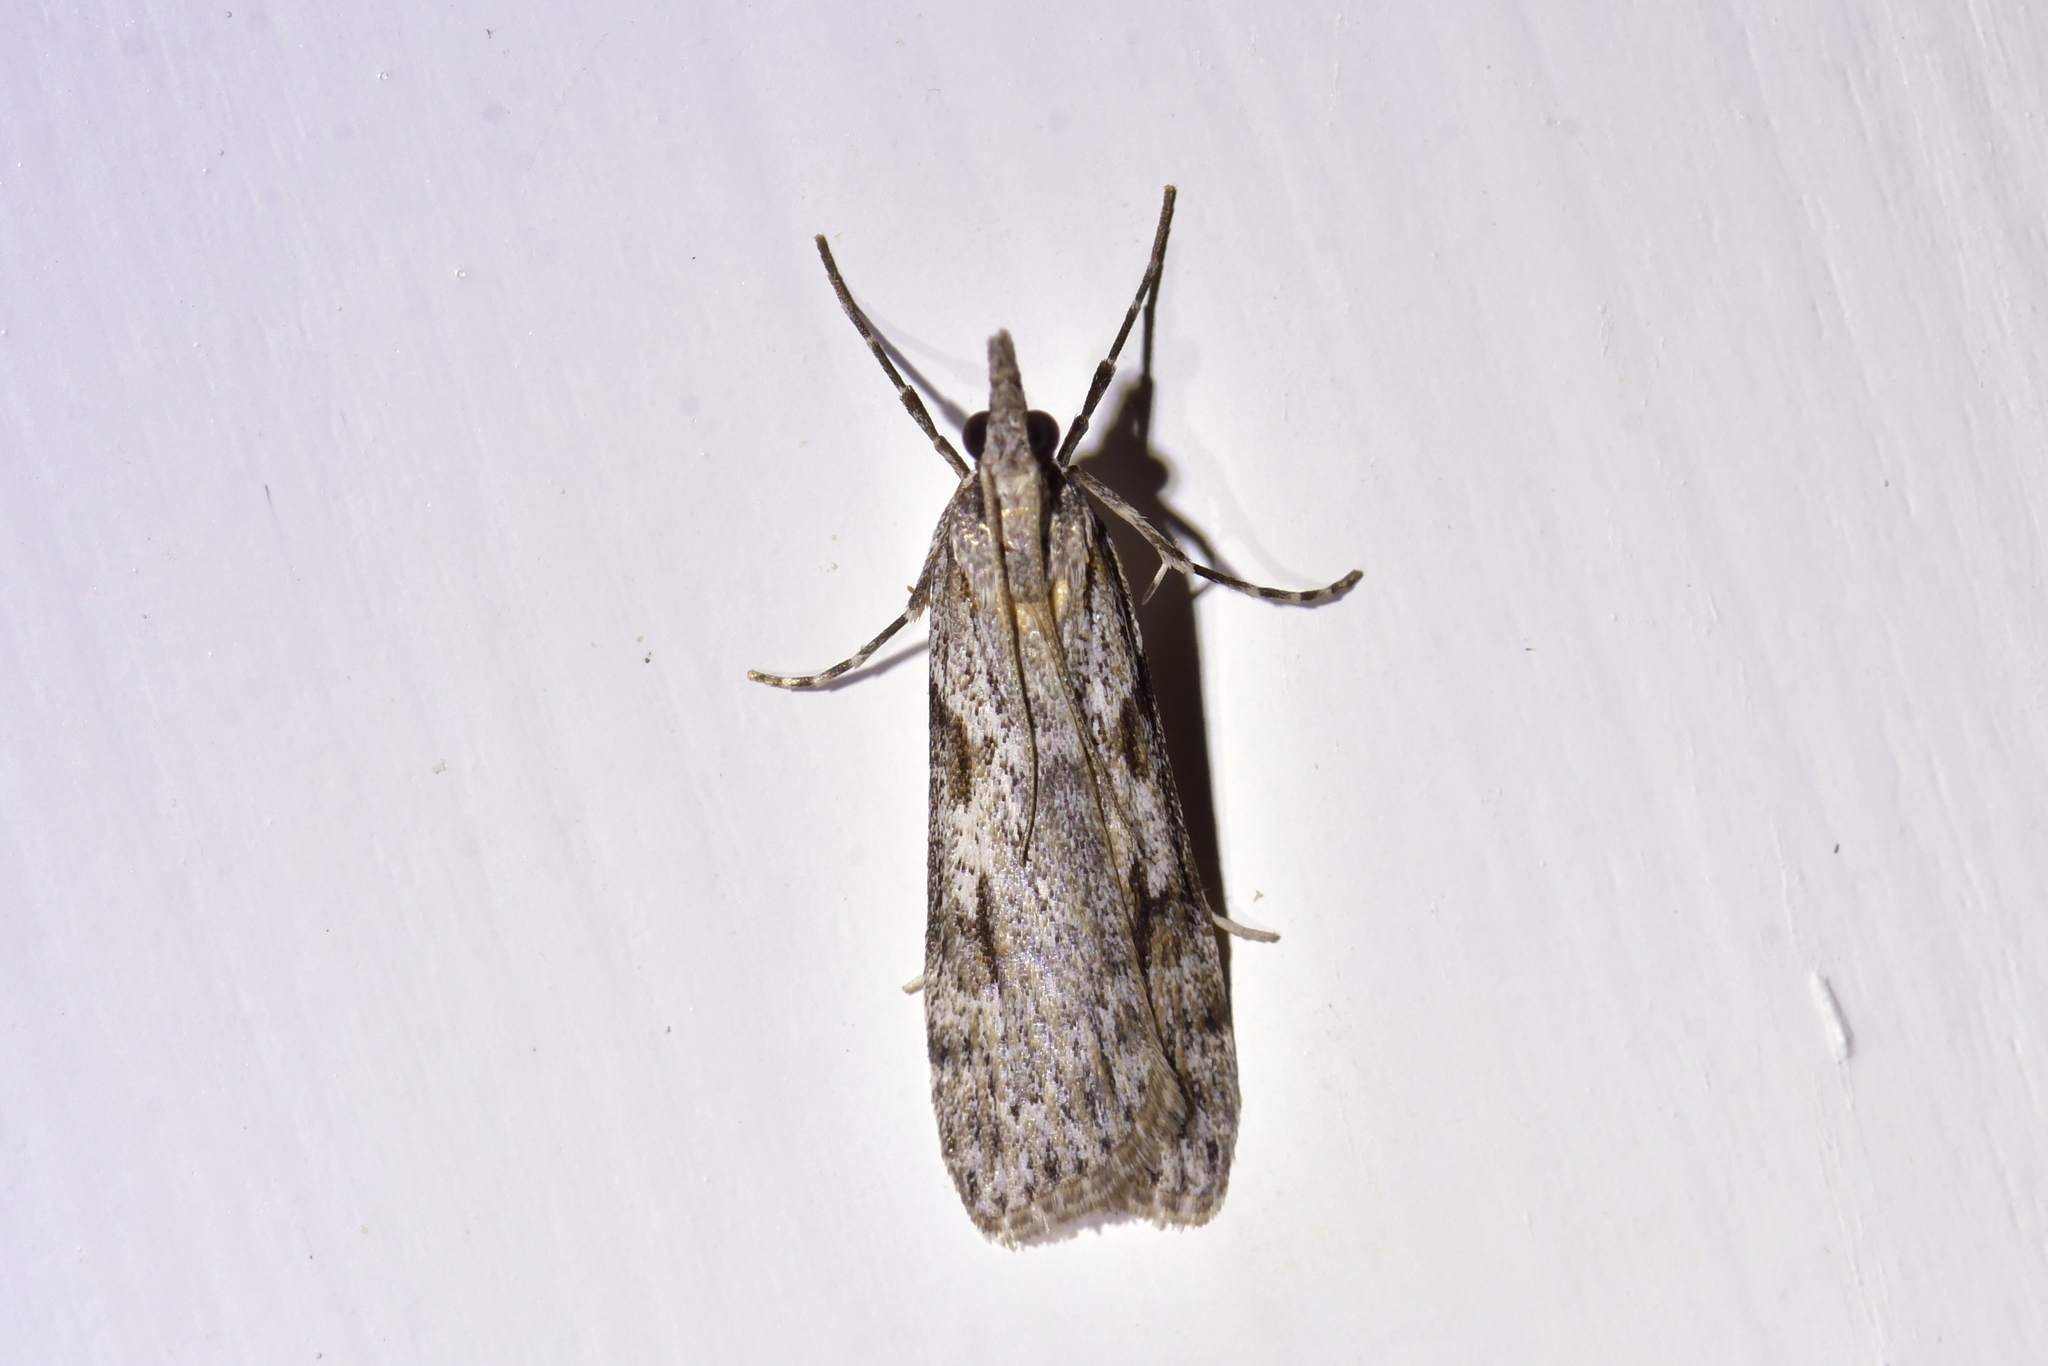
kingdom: Animalia
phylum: Arthropoda
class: Insecta
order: Lepidoptera
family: Crambidae
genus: Scoparia
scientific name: Scoparia halopis
